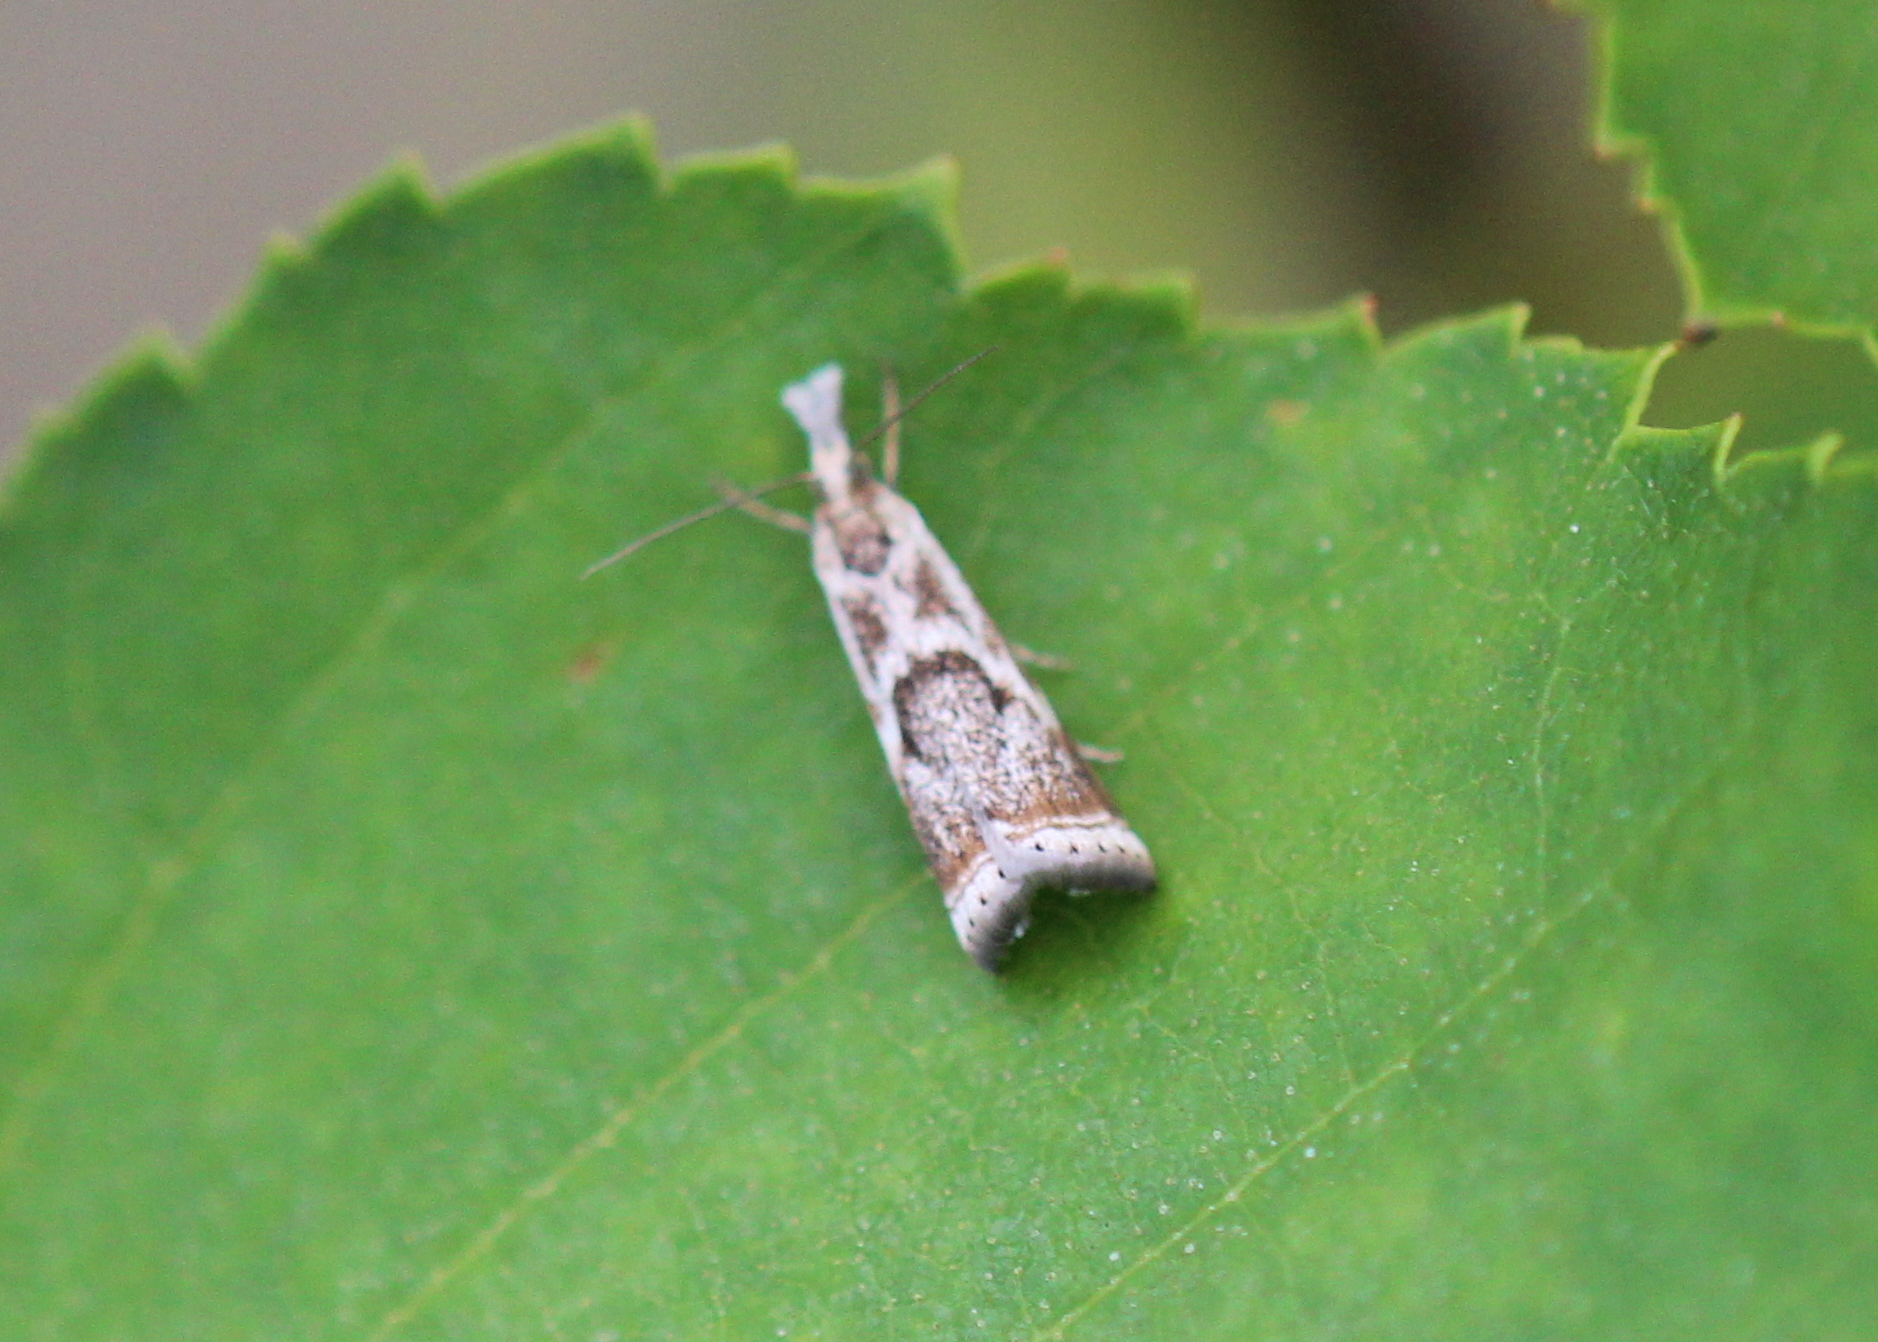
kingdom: Animalia
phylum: Arthropoda
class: Insecta
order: Lepidoptera
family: Crambidae
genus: Microcrambus
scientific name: Microcrambus elegans
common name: Elegant grass-veneer
